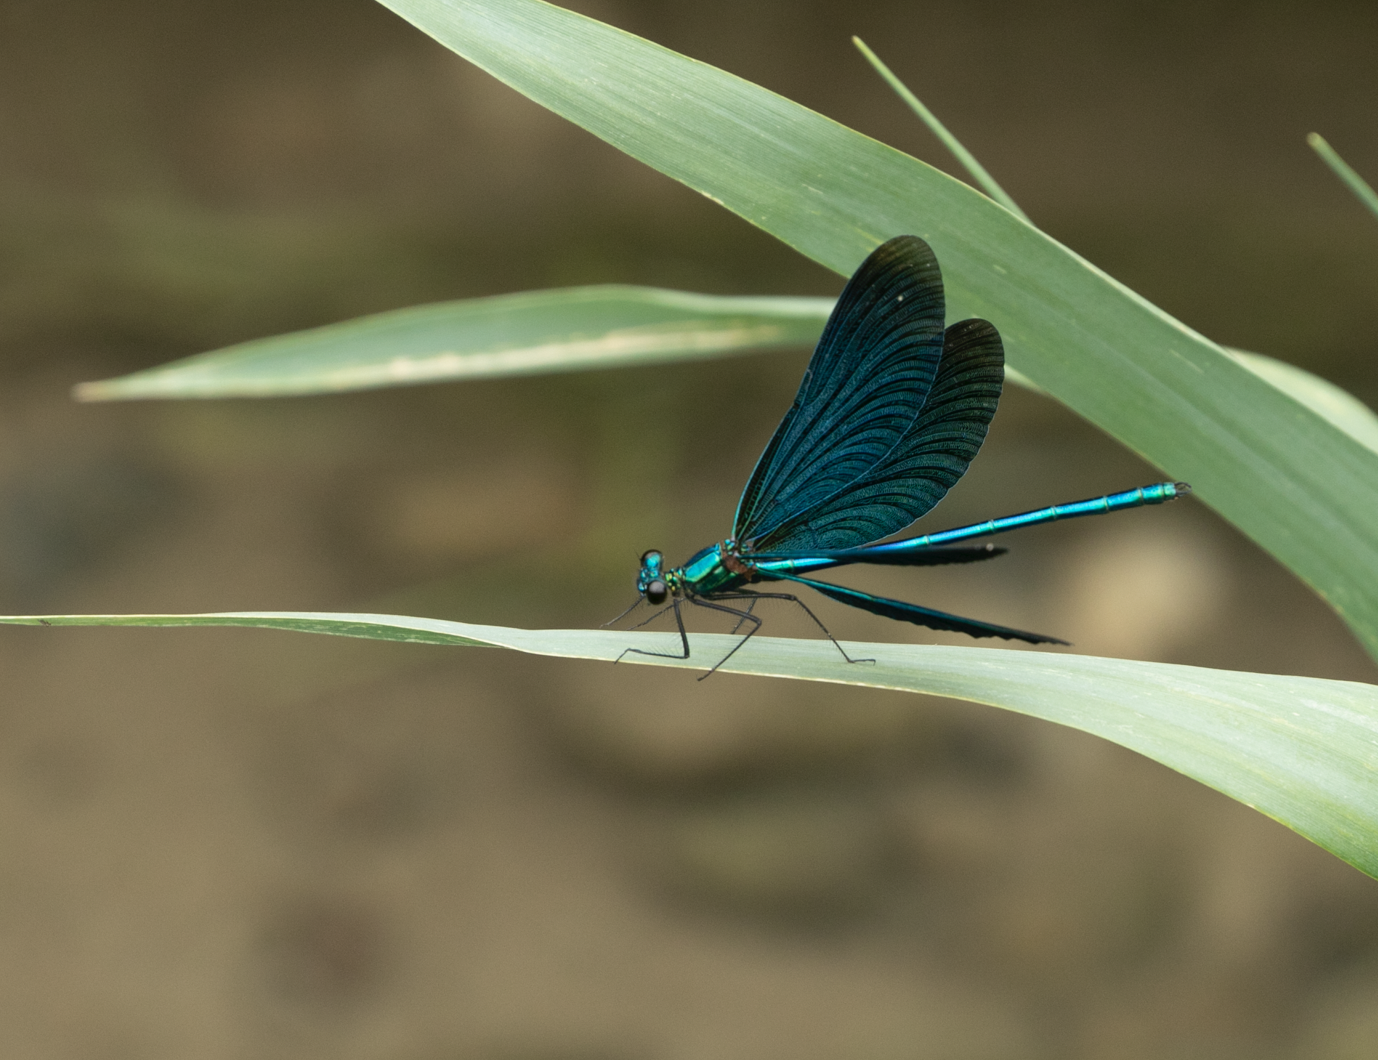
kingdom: Animalia
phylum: Arthropoda
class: Insecta
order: Odonata
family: Calopterygidae
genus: Calopteryx
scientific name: Calopteryx virgo
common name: Beautiful demoiselle
